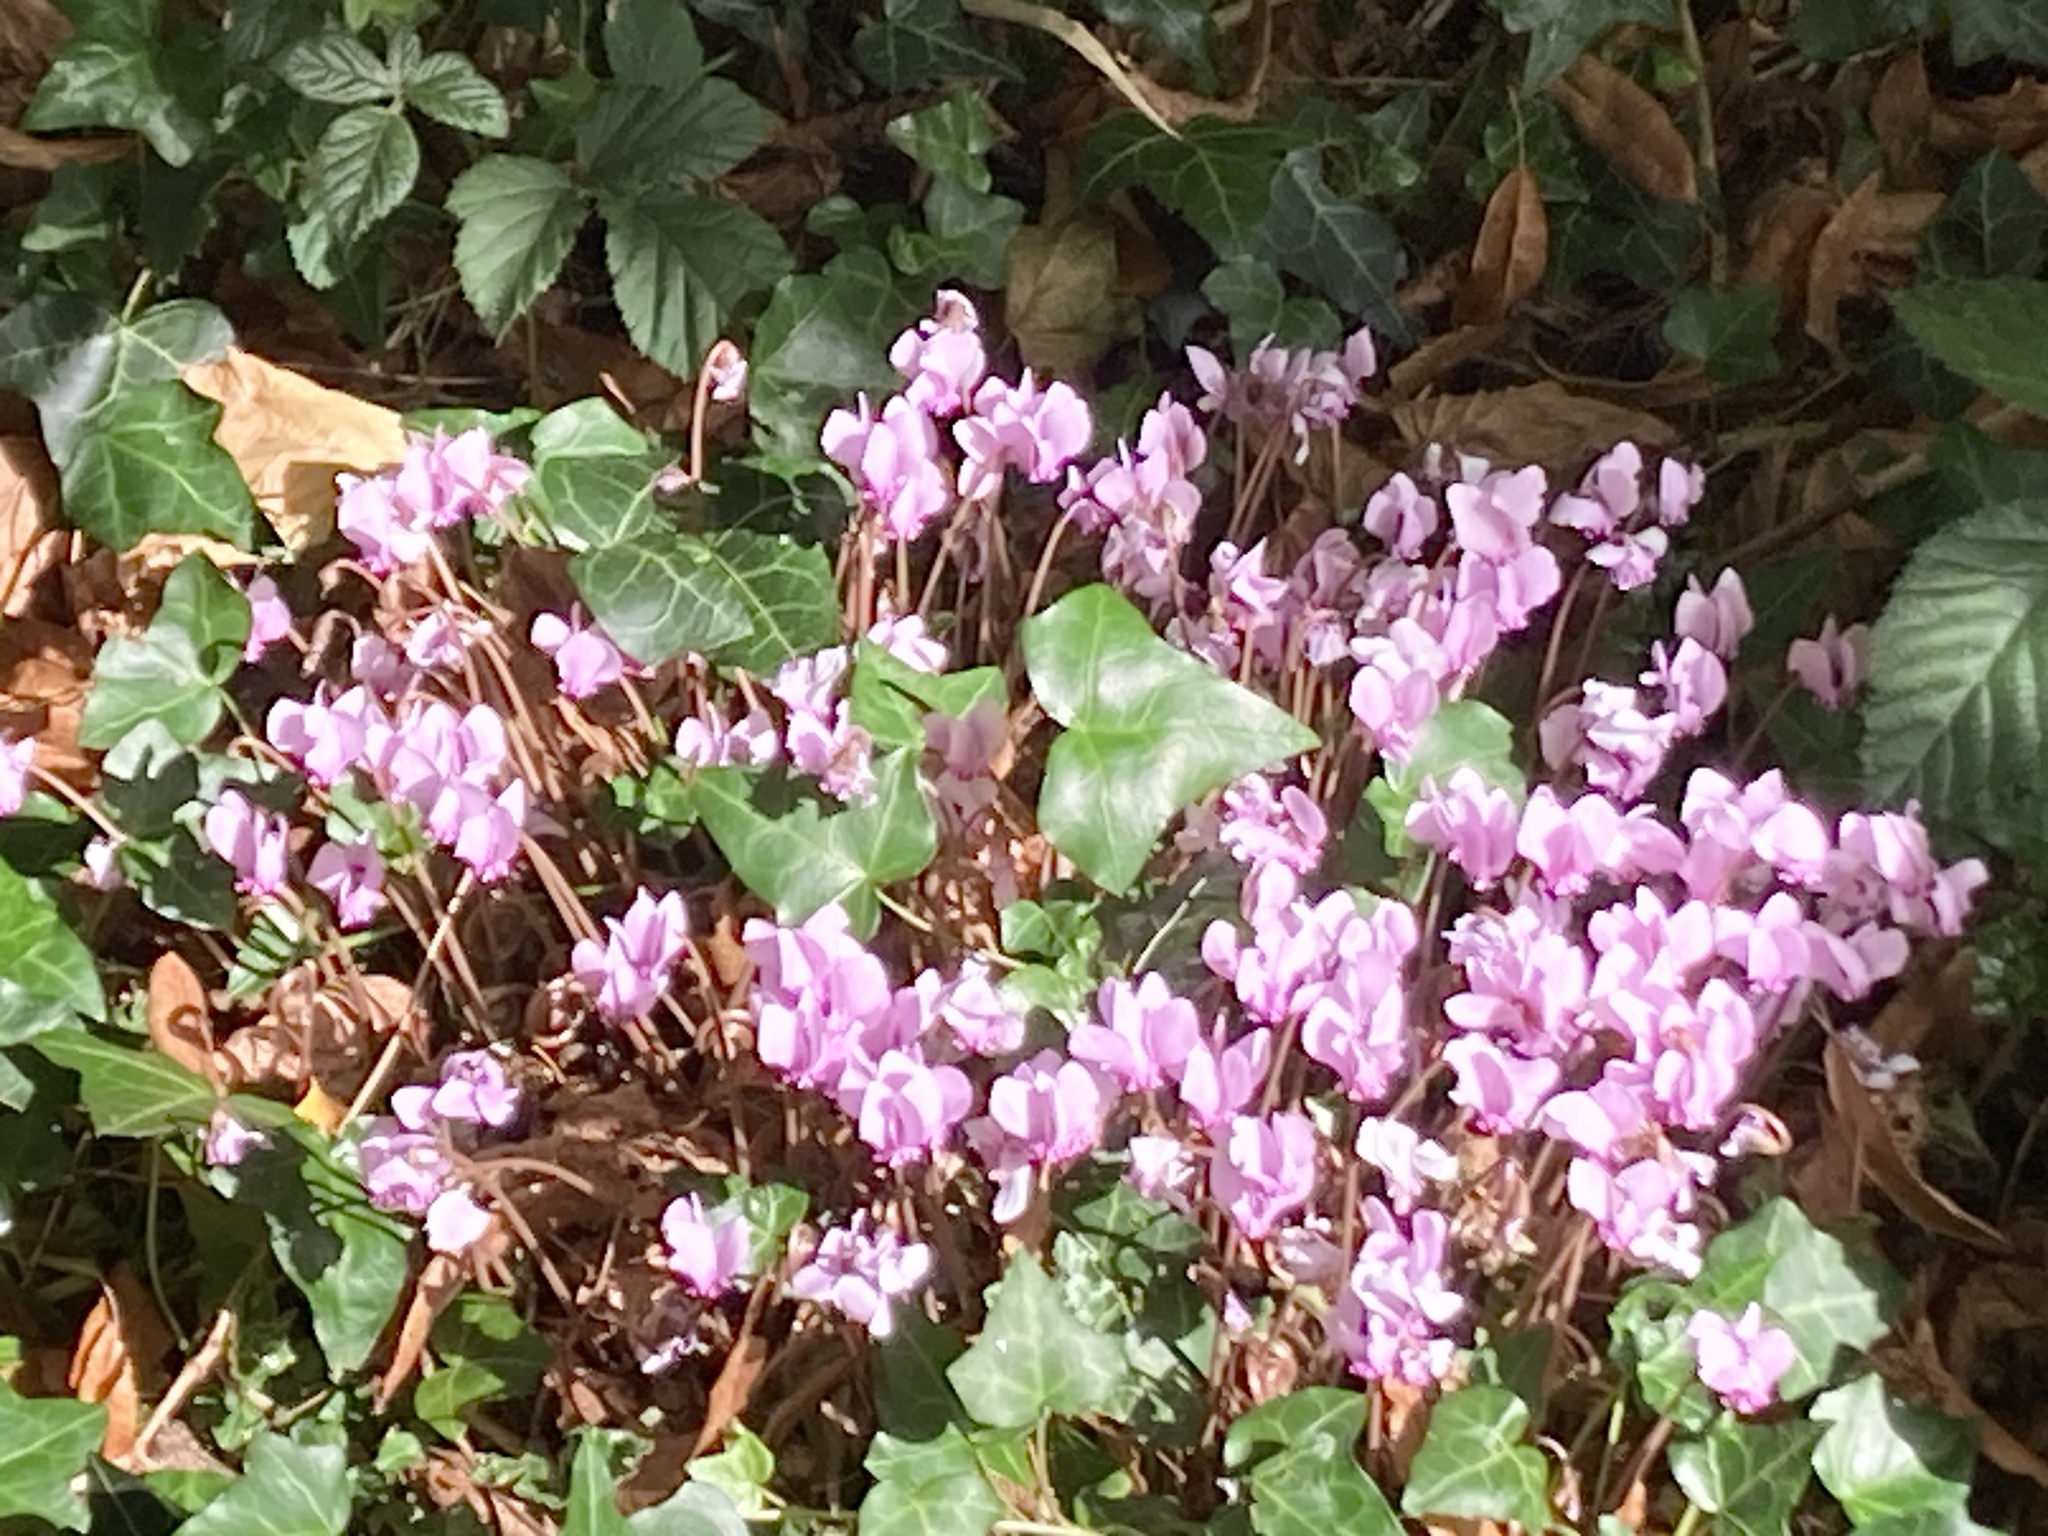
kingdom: Plantae
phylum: Tracheophyta
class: Magnoliopsida
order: Ericales
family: Primulaceae
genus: Cyclamen
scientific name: Cyclamen hederifolium
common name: Sowbread
